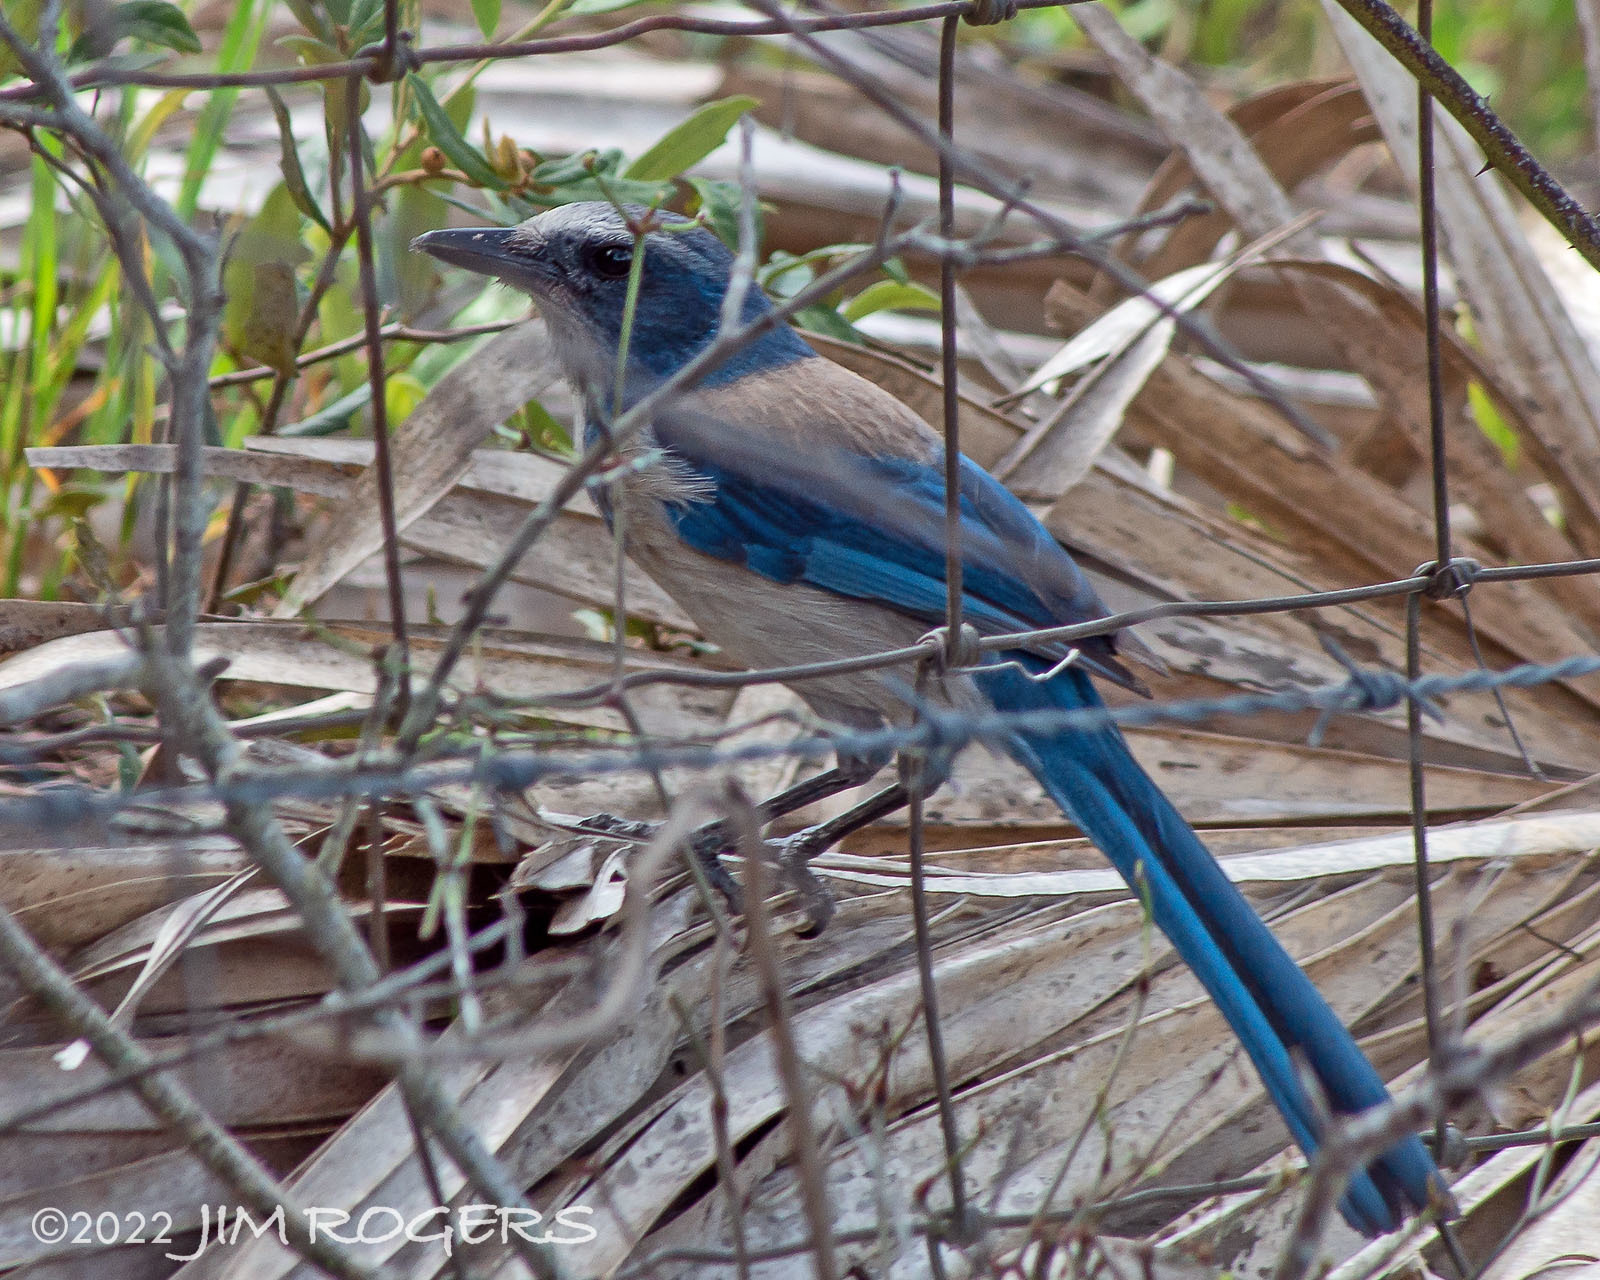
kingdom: Animalia
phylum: Chordata
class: Aves
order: Passeriformes
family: Corvidae
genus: Aphelocoma
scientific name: Aphelocoma coerulescens
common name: Florida scrub jay
